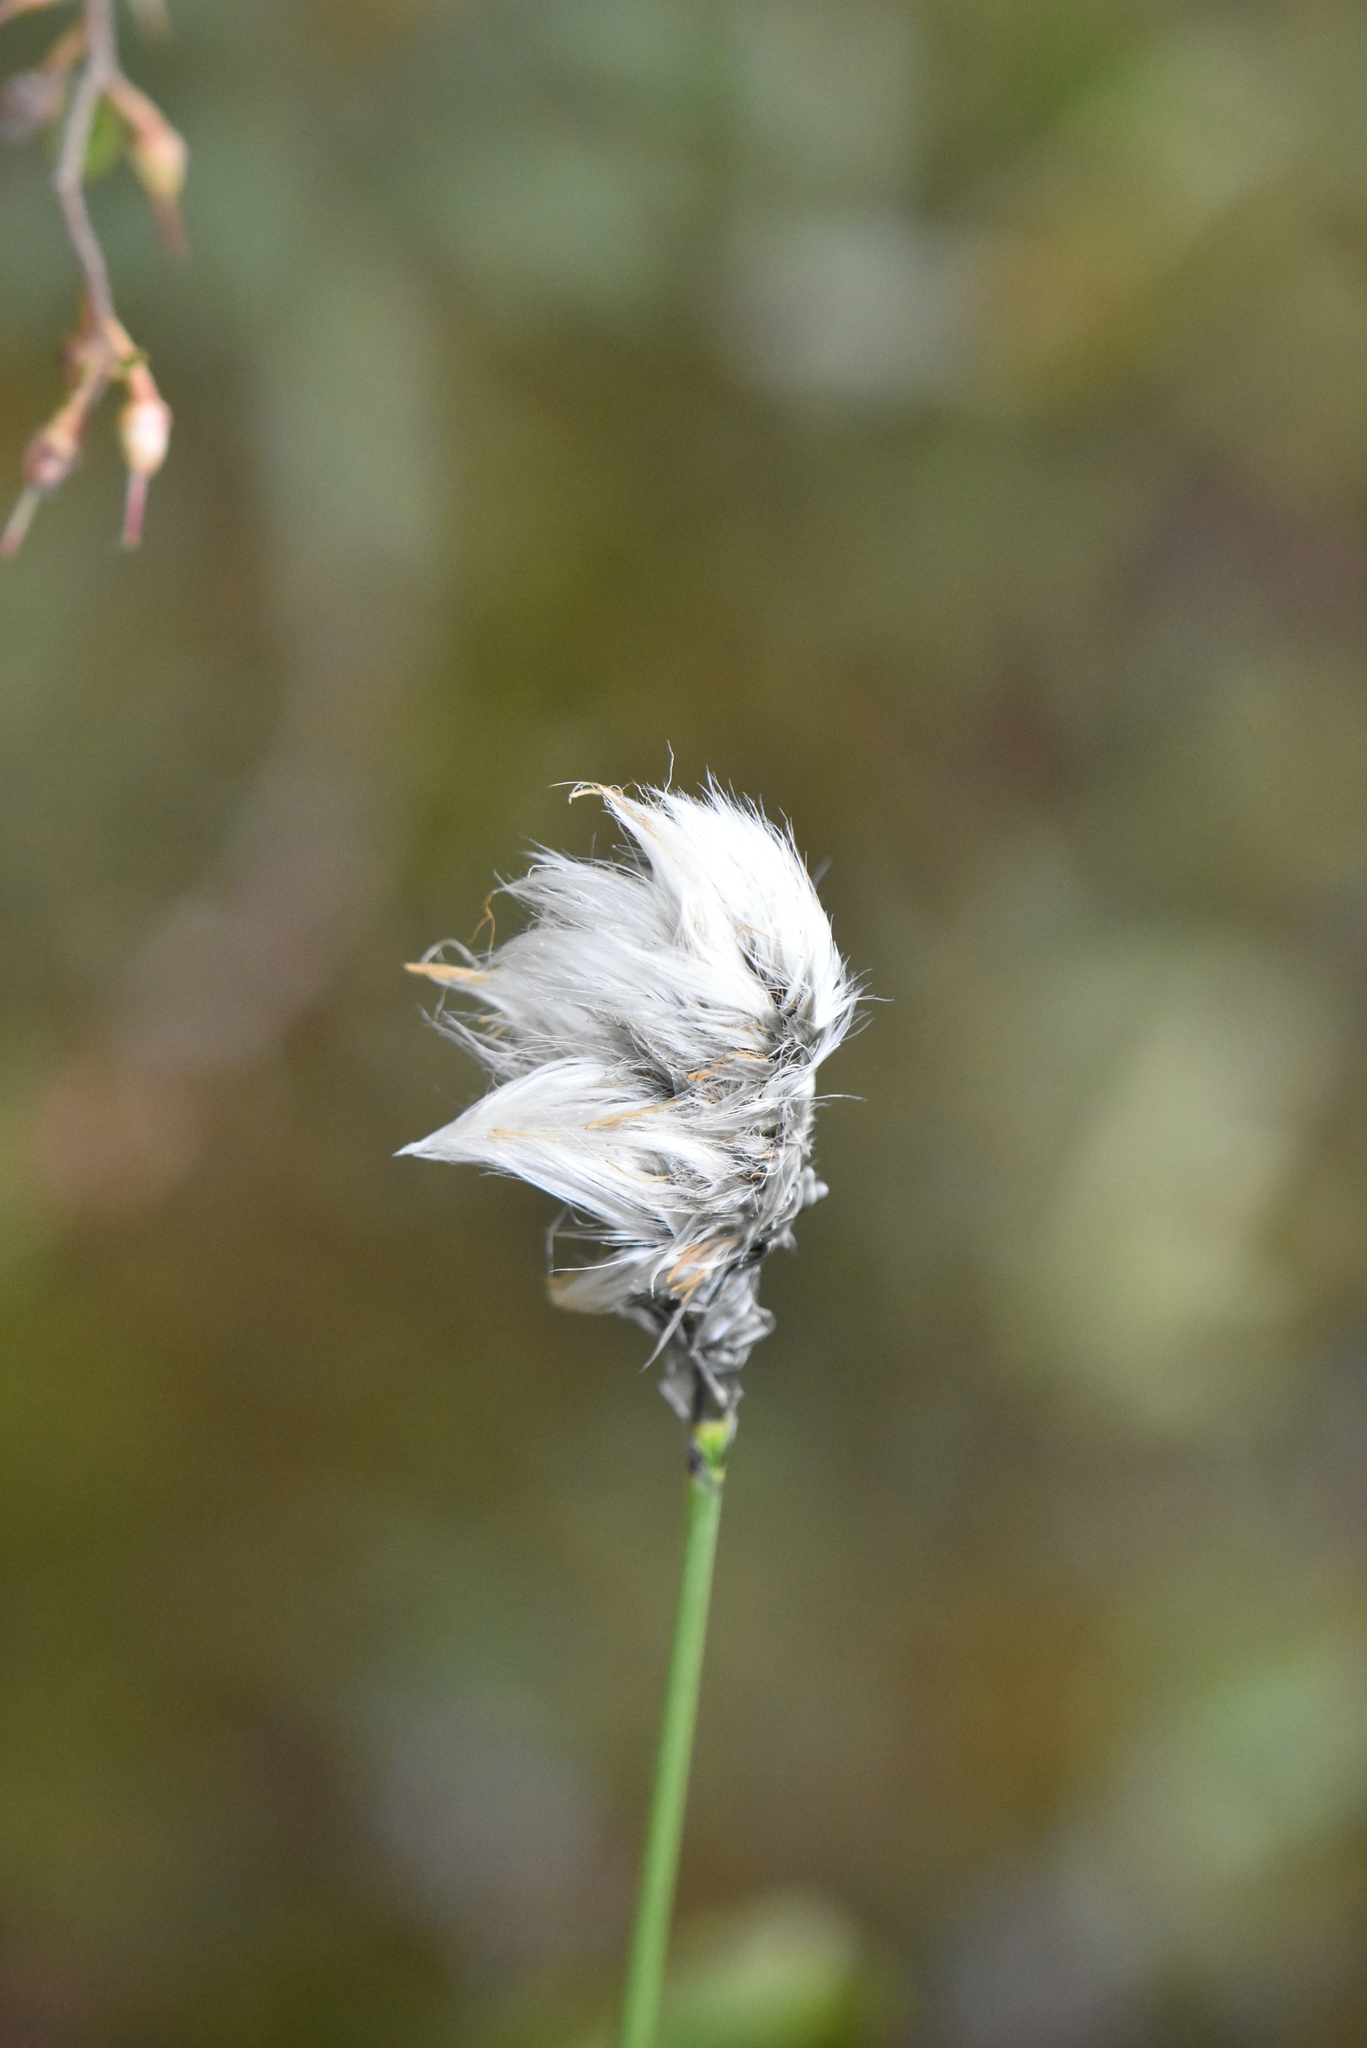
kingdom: Plantae
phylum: Tracheophyta
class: Liliopsida
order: Poales
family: Cyperaceae
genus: Eriophorum
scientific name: Eriophorum vaginatum
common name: Hare's-tail cottongrass
